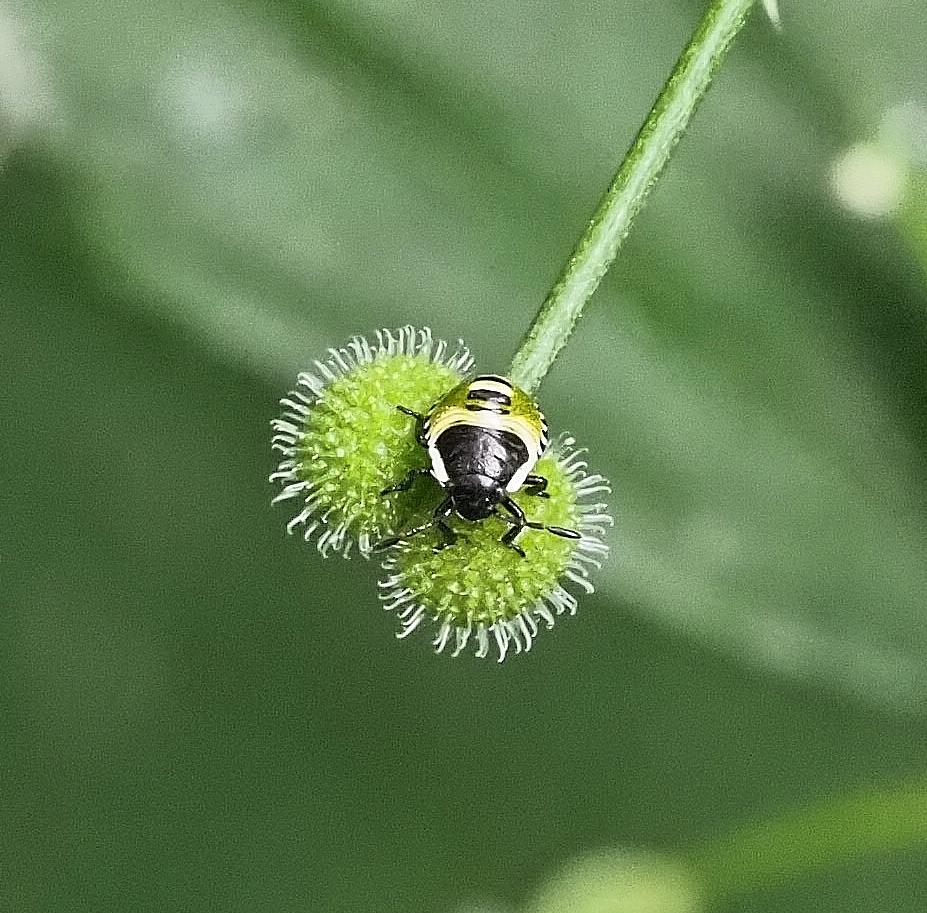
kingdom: Animalia
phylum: Arthropoda
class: Insecta
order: Hemiptera
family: Pentatomidae
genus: Palomena
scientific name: Palomena prasina
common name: Green shieldbug
